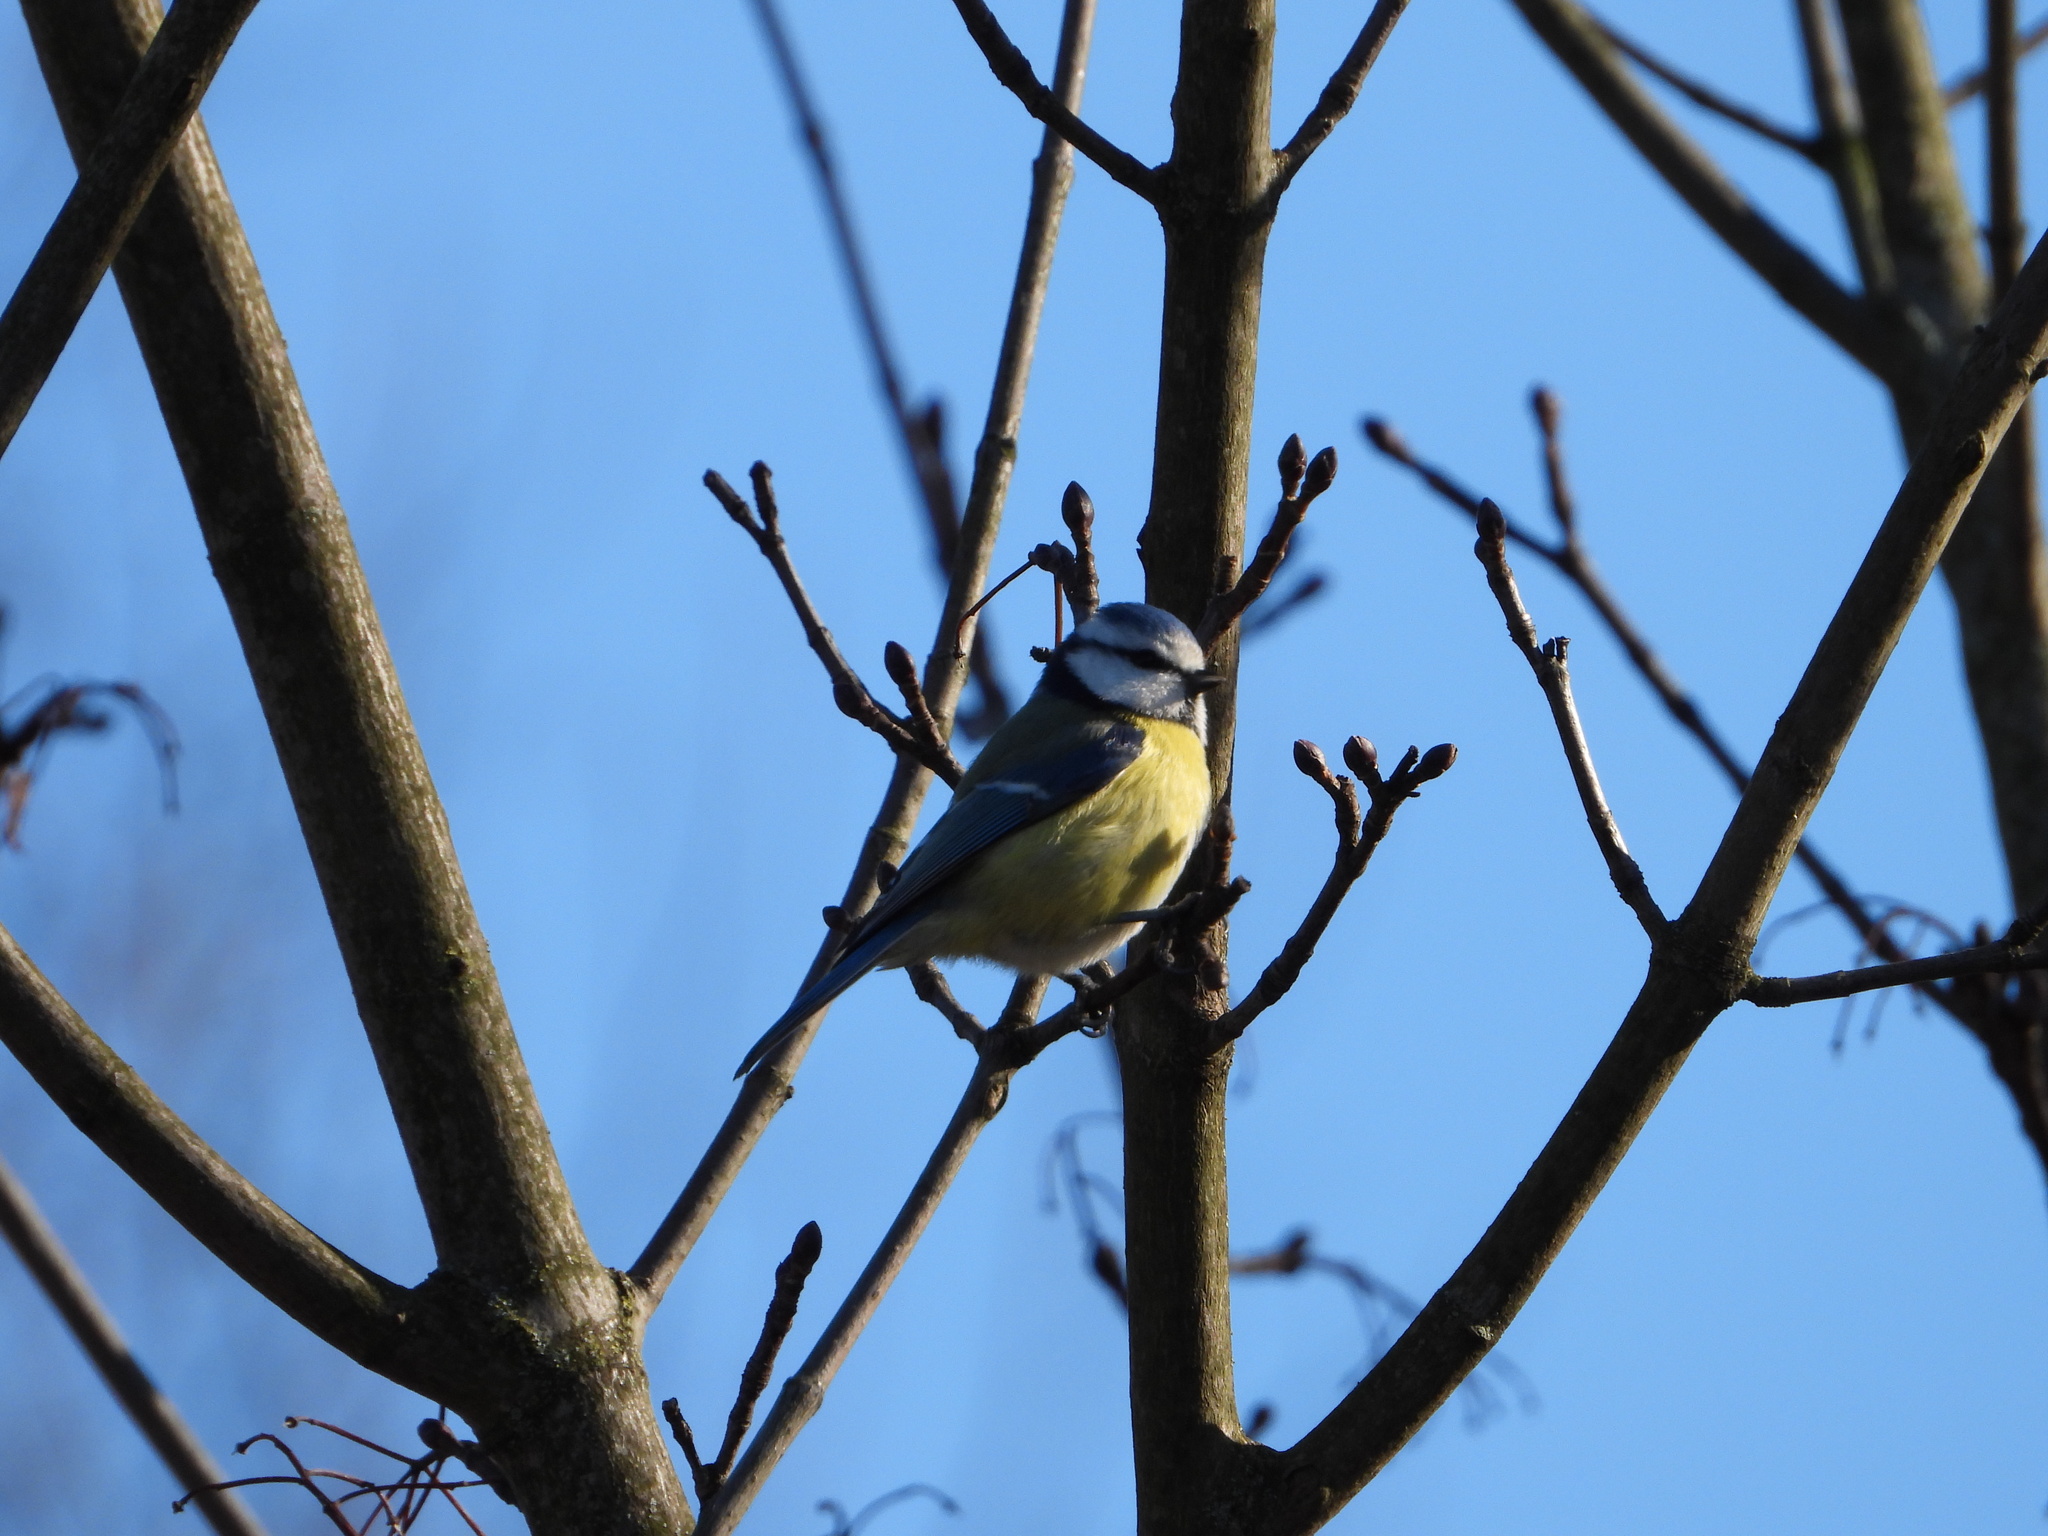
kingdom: Animalia
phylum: Chordata
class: Aves
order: Passeriformes
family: Paridae
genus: Cyanistes
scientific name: Cyanistes caeruleus
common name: Eurasian blue tit
